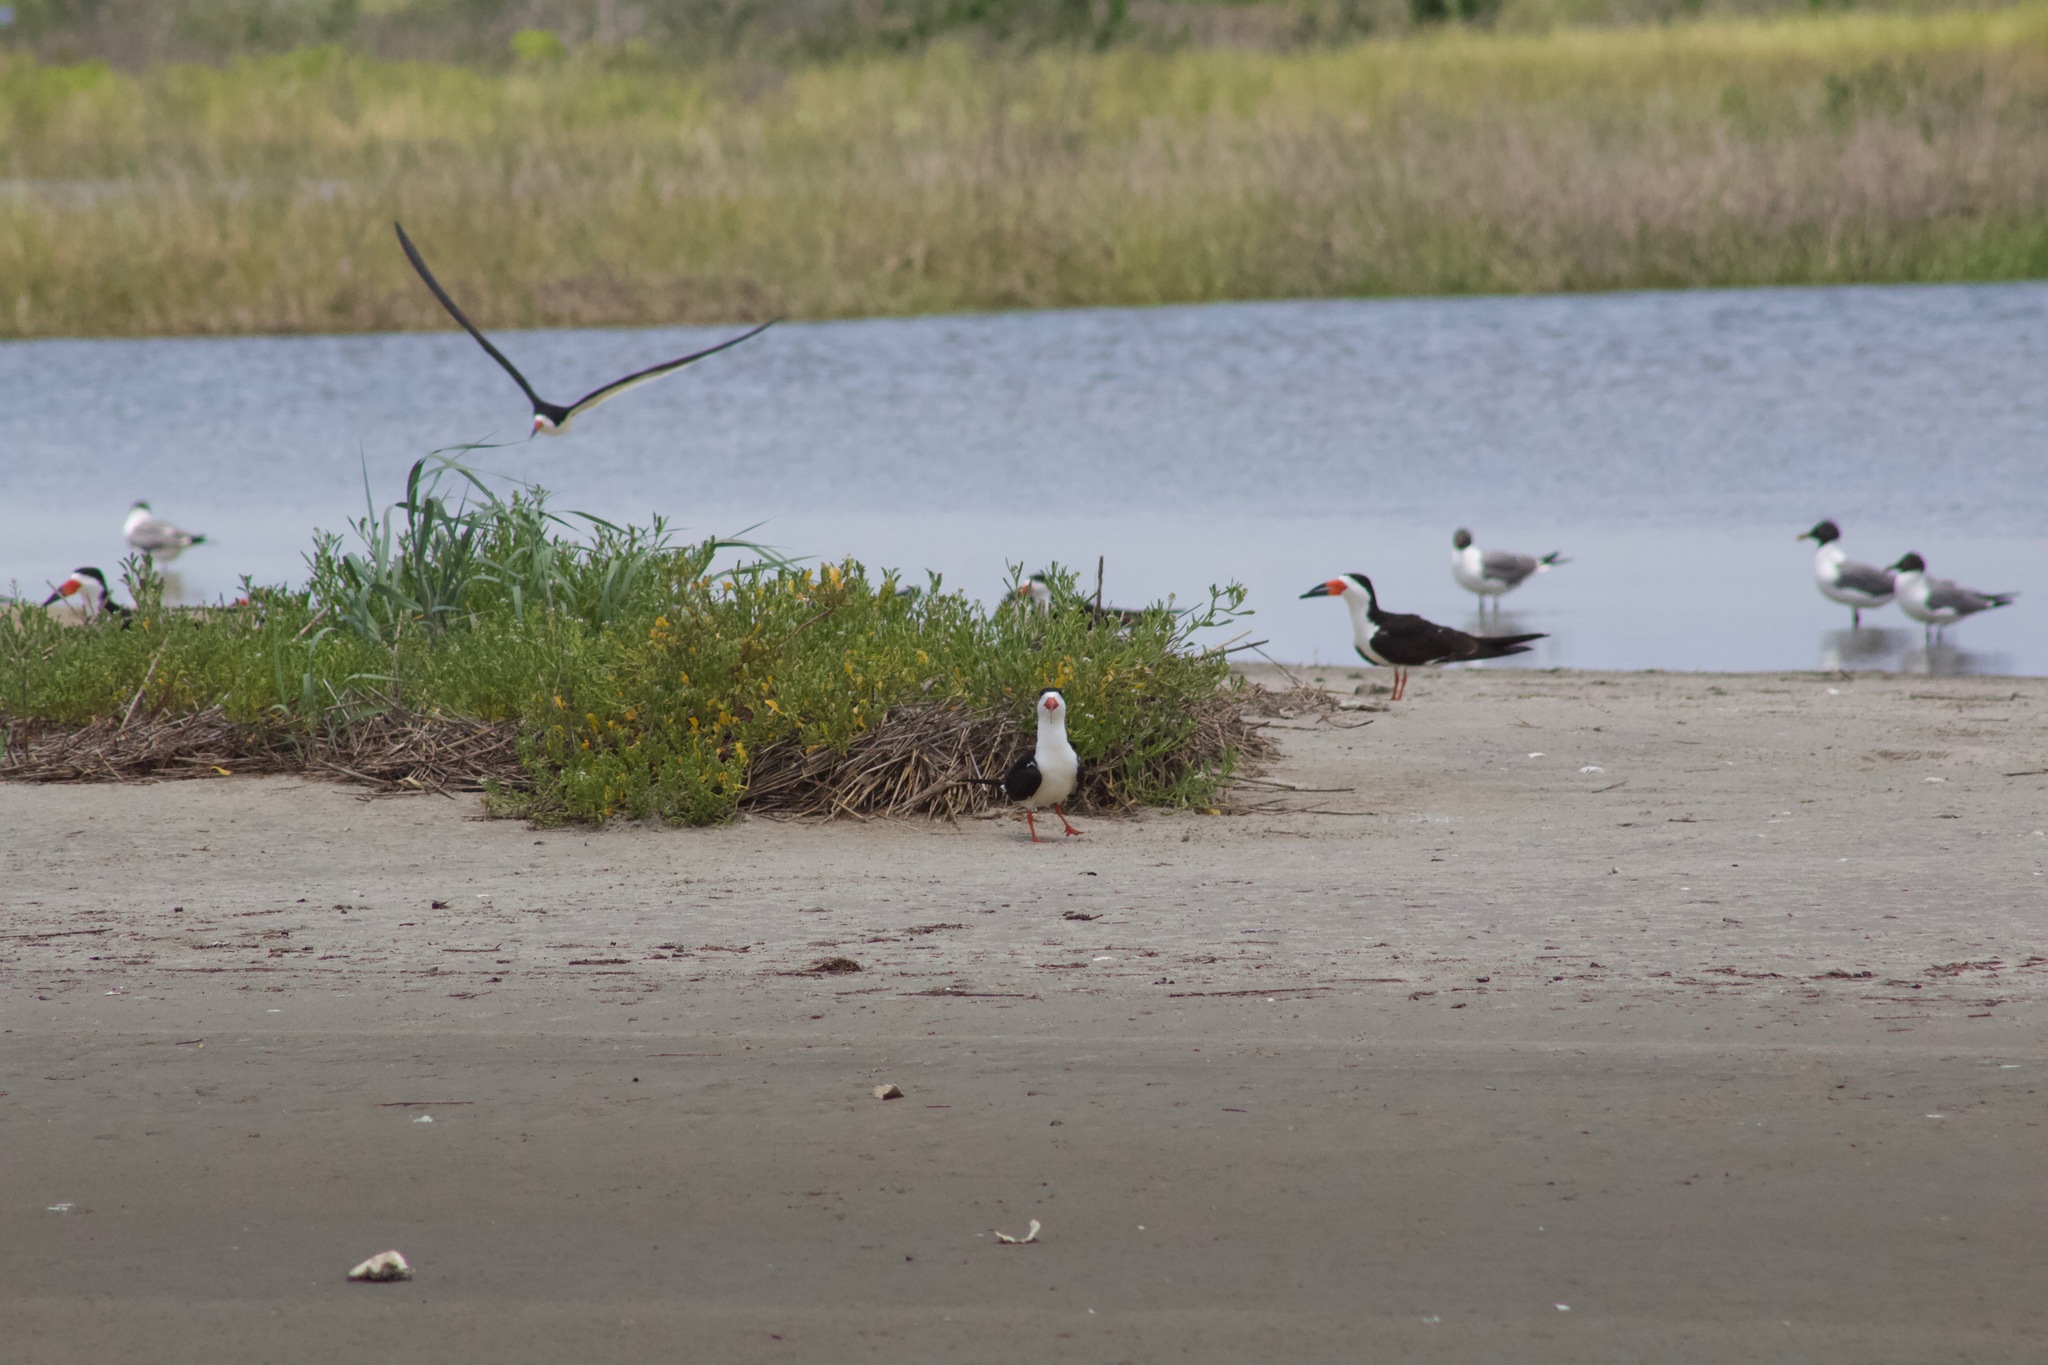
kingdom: Animalia
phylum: Chordata
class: Aves
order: Charadriiformes
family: Laridae
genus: Rynchops
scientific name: Rynchops niger
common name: Black skimmer
